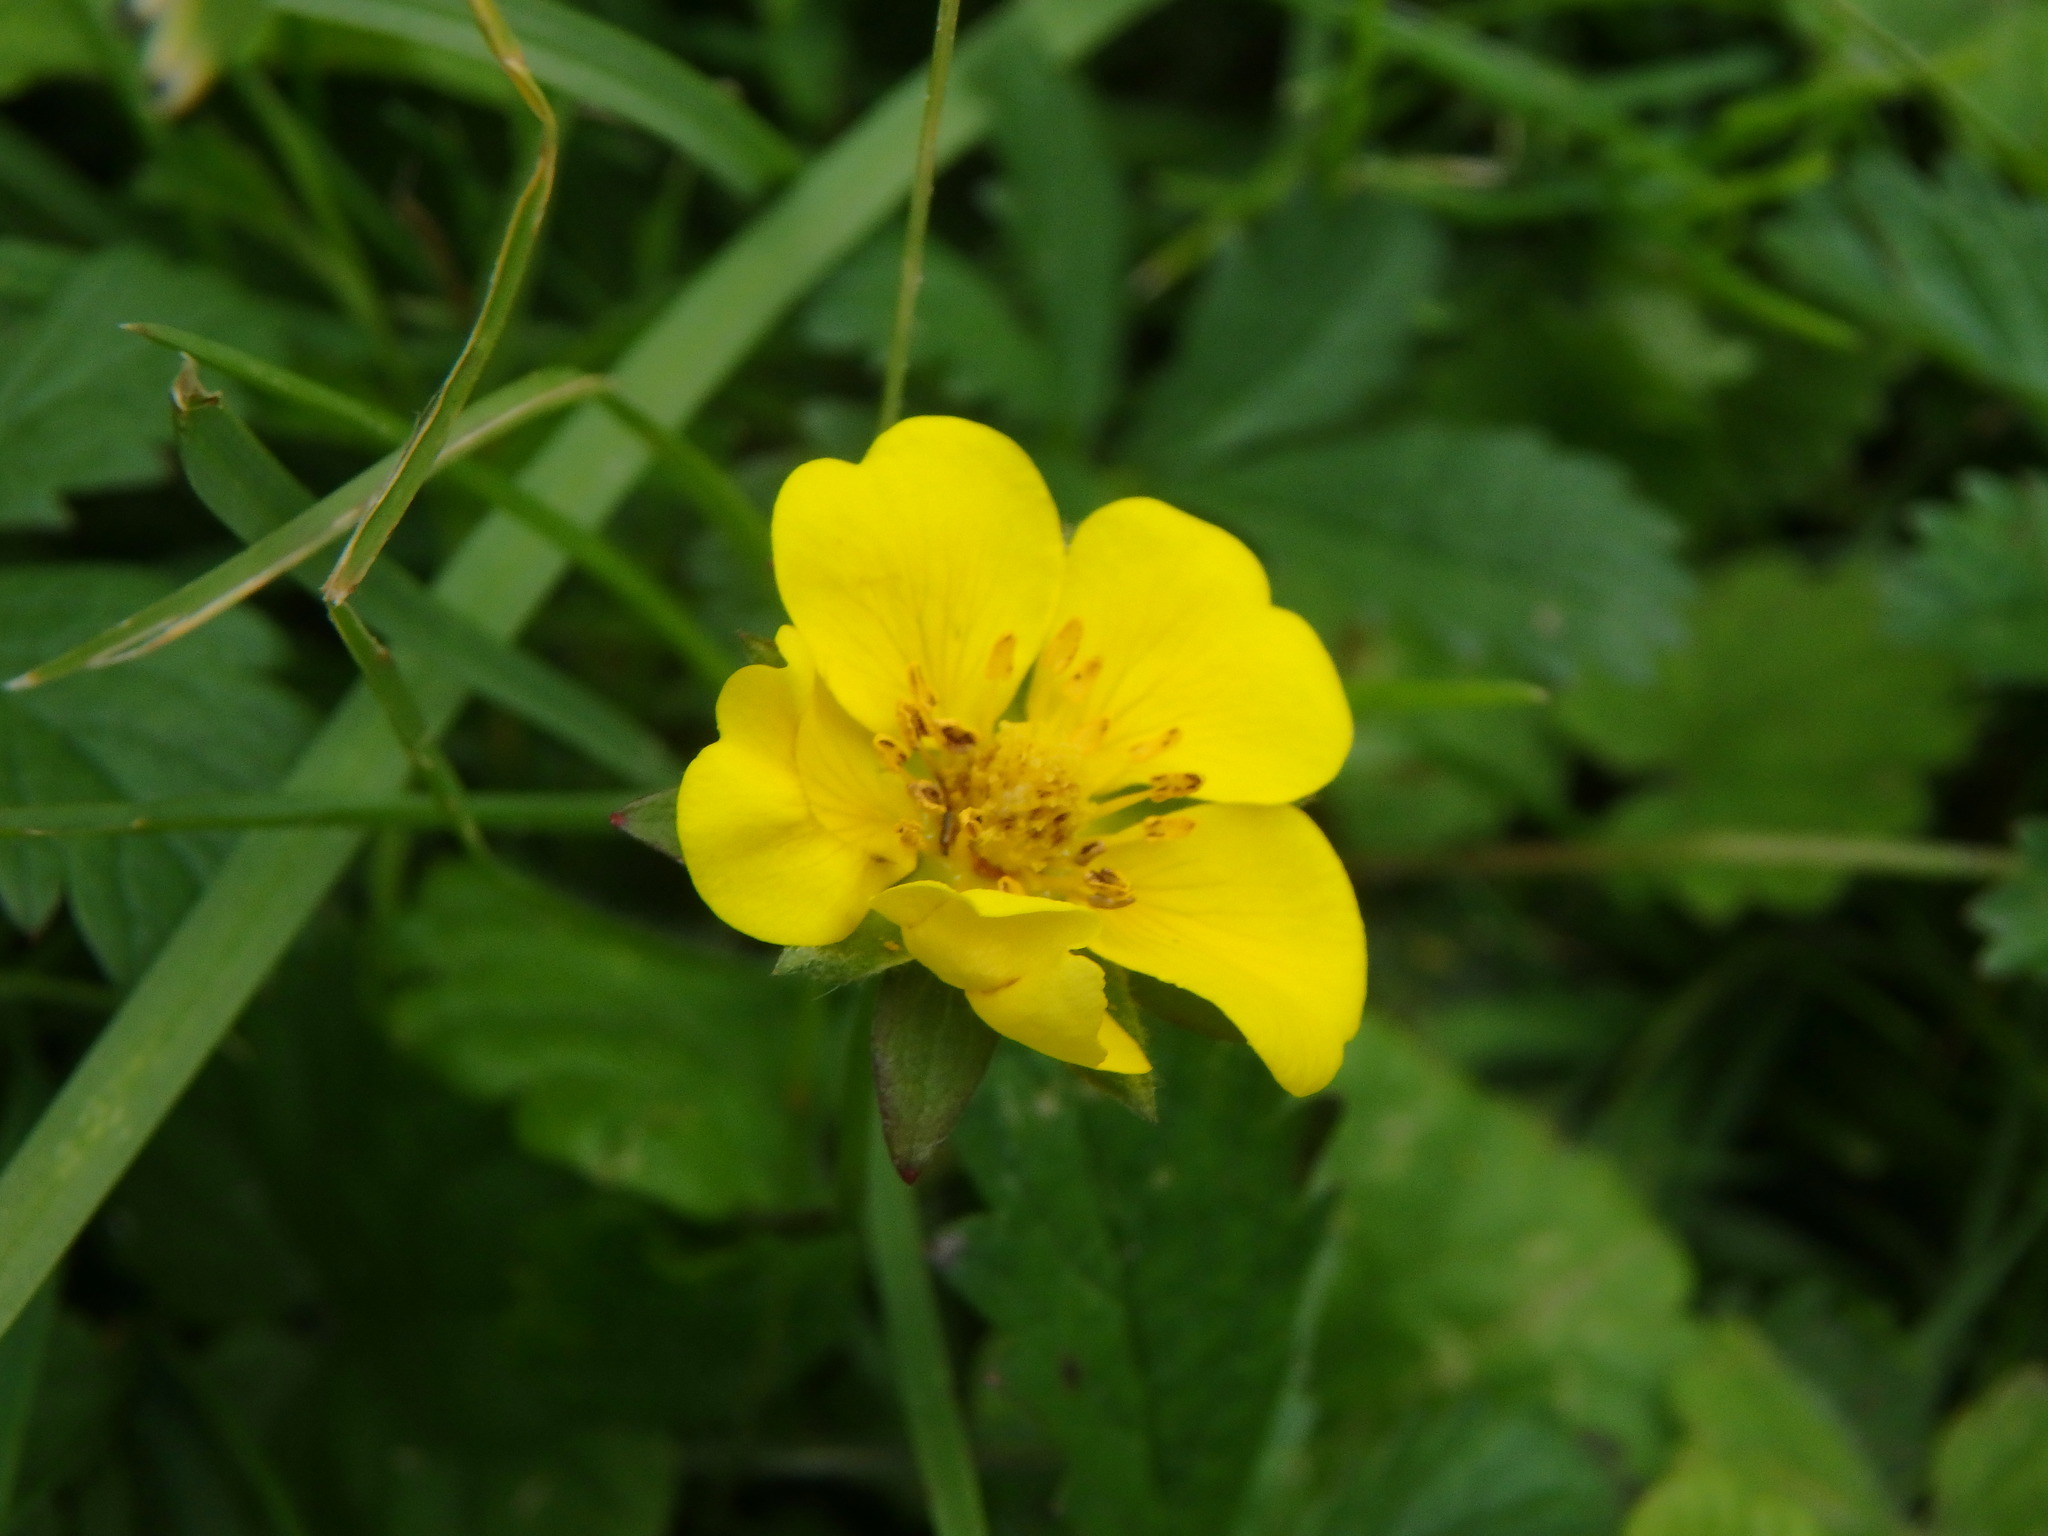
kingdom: Plantae
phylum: Tracheophyta
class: Magnoliopsida
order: Rosales
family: Rosaceae
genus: Potentilla
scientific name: Potentilla reptans
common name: Creeping cinquefoil
